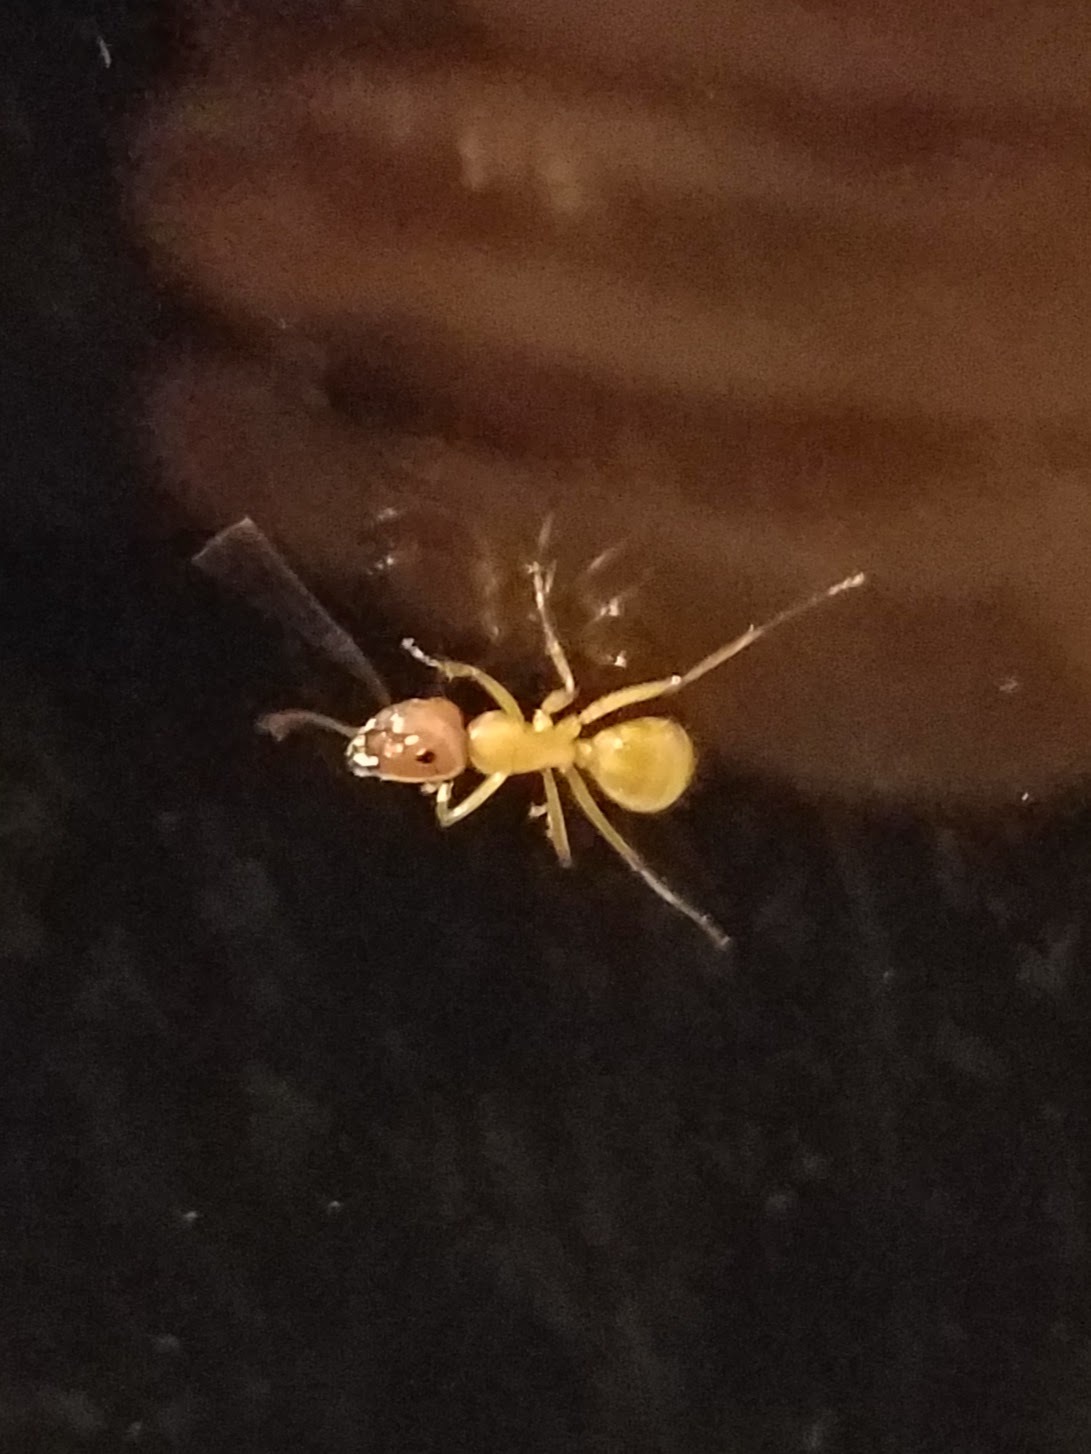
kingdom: Animalia
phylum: Arthropoda
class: Insecta
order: Hymenoptera
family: Formicidae
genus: Camponotus
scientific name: Camponotus castaneus
